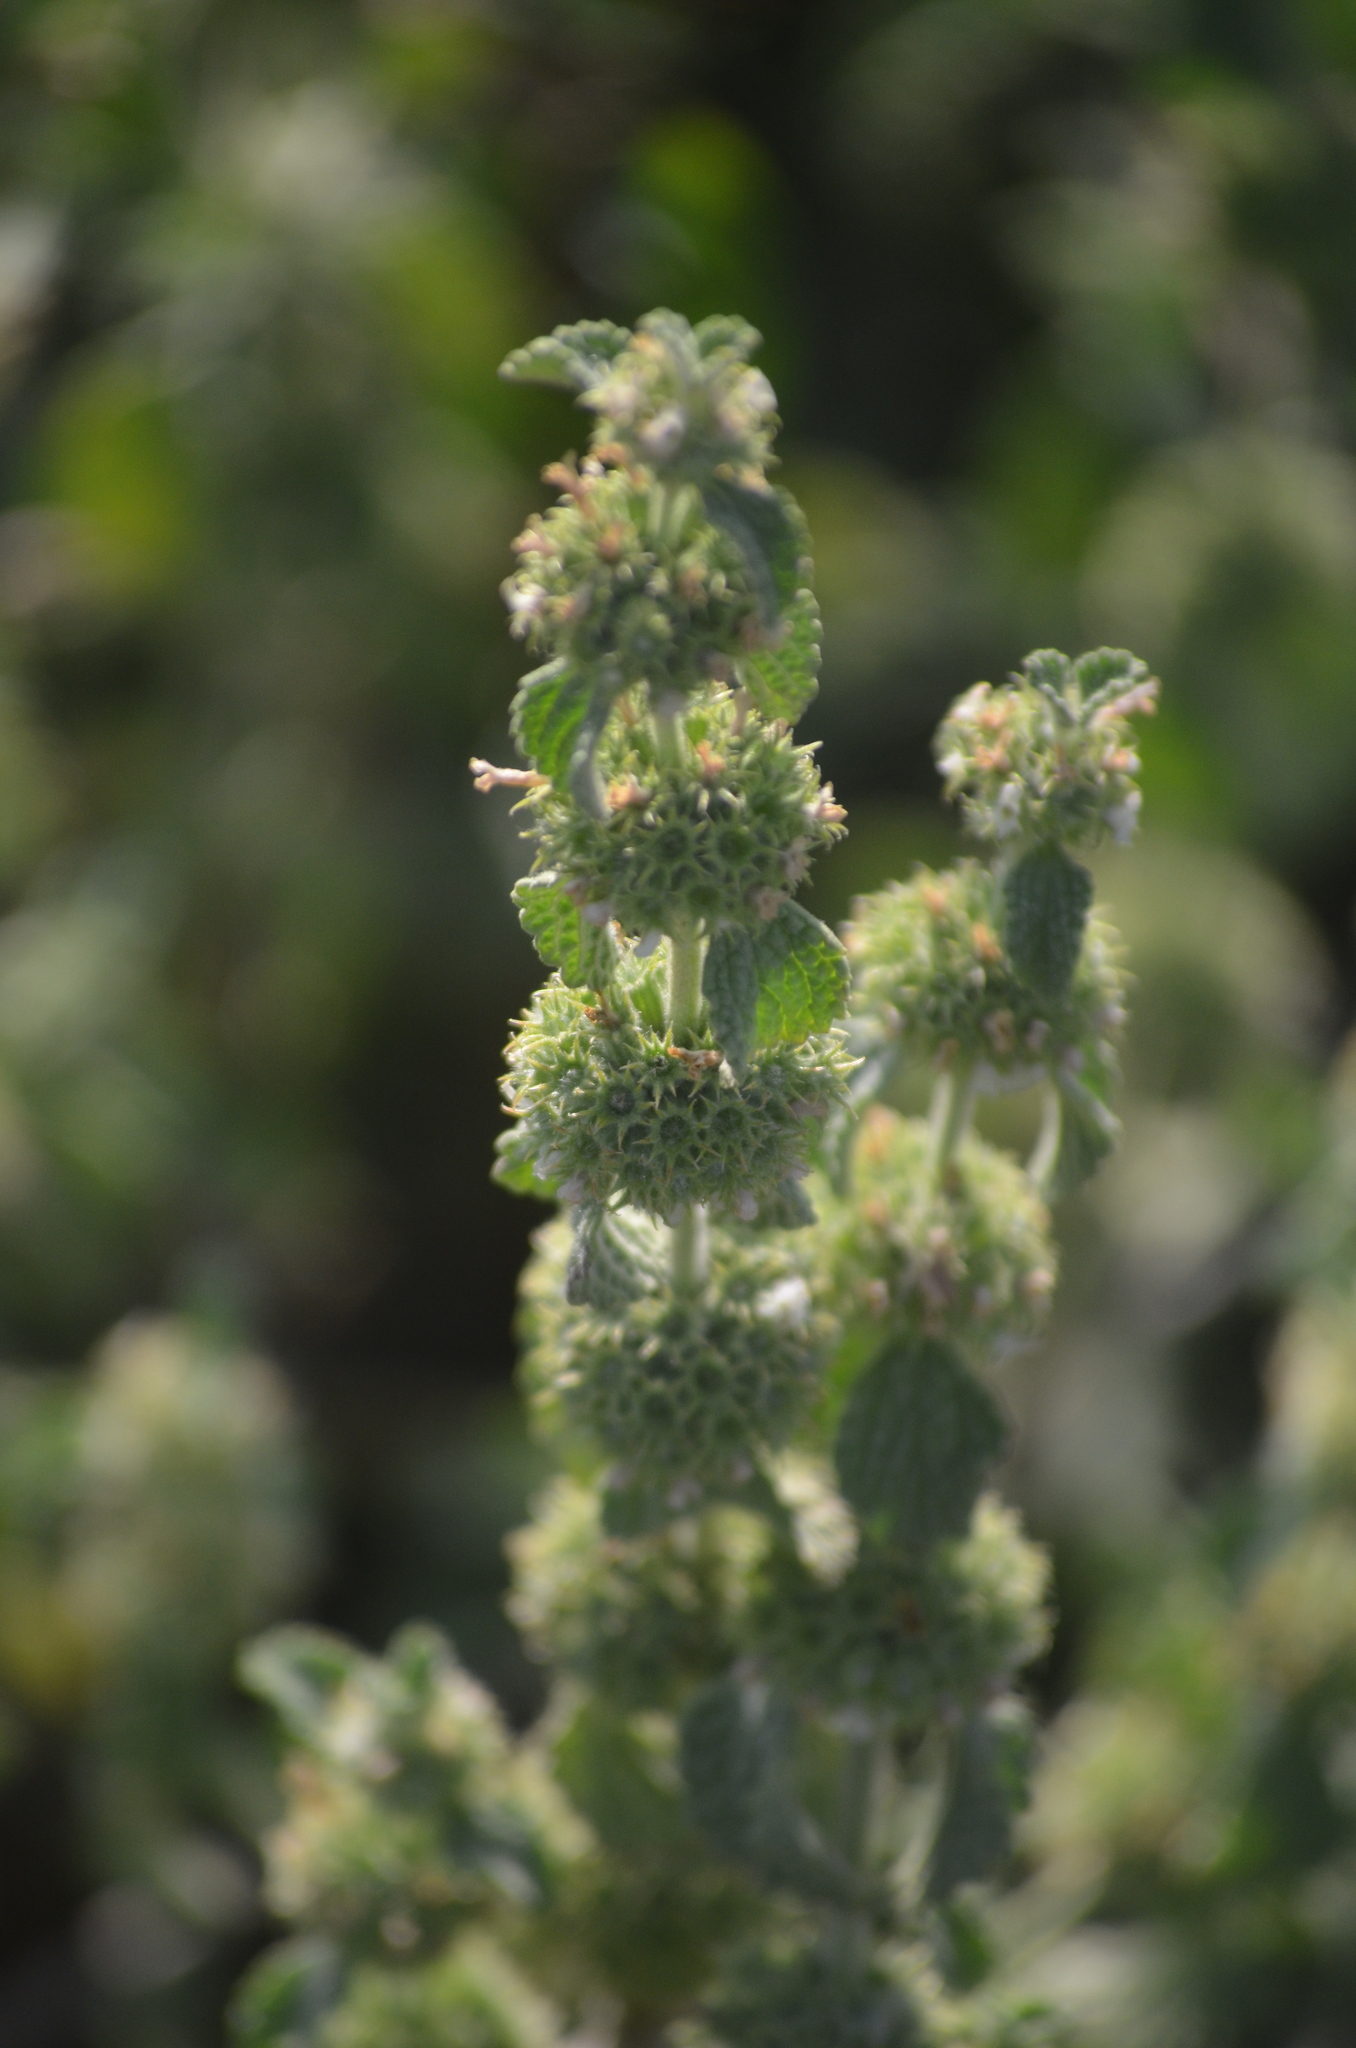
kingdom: Plantae
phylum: Tracheophyta
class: Magnoliopsida
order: Lamiales
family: Lamiaceae
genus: Marrubium
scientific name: Marrubium vulgare
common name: Horehound
